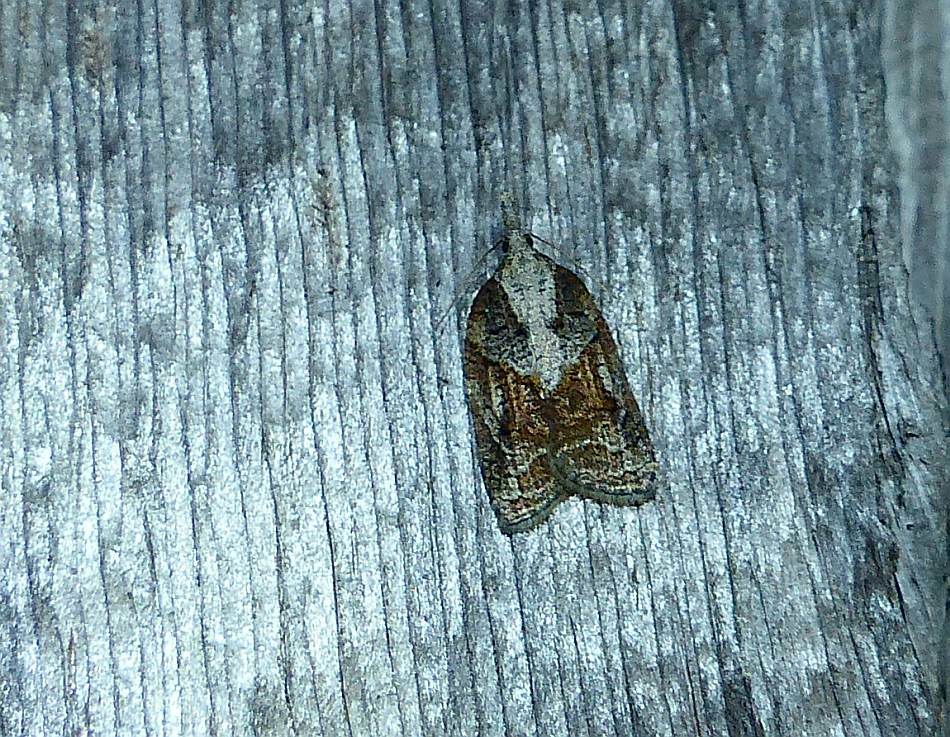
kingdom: Animalia
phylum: Arthropoda
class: Insecta
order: Lepidoptera
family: Tortricidae
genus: Platynota
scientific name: Platynota idaeusalis
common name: Tufted apple bud moth
